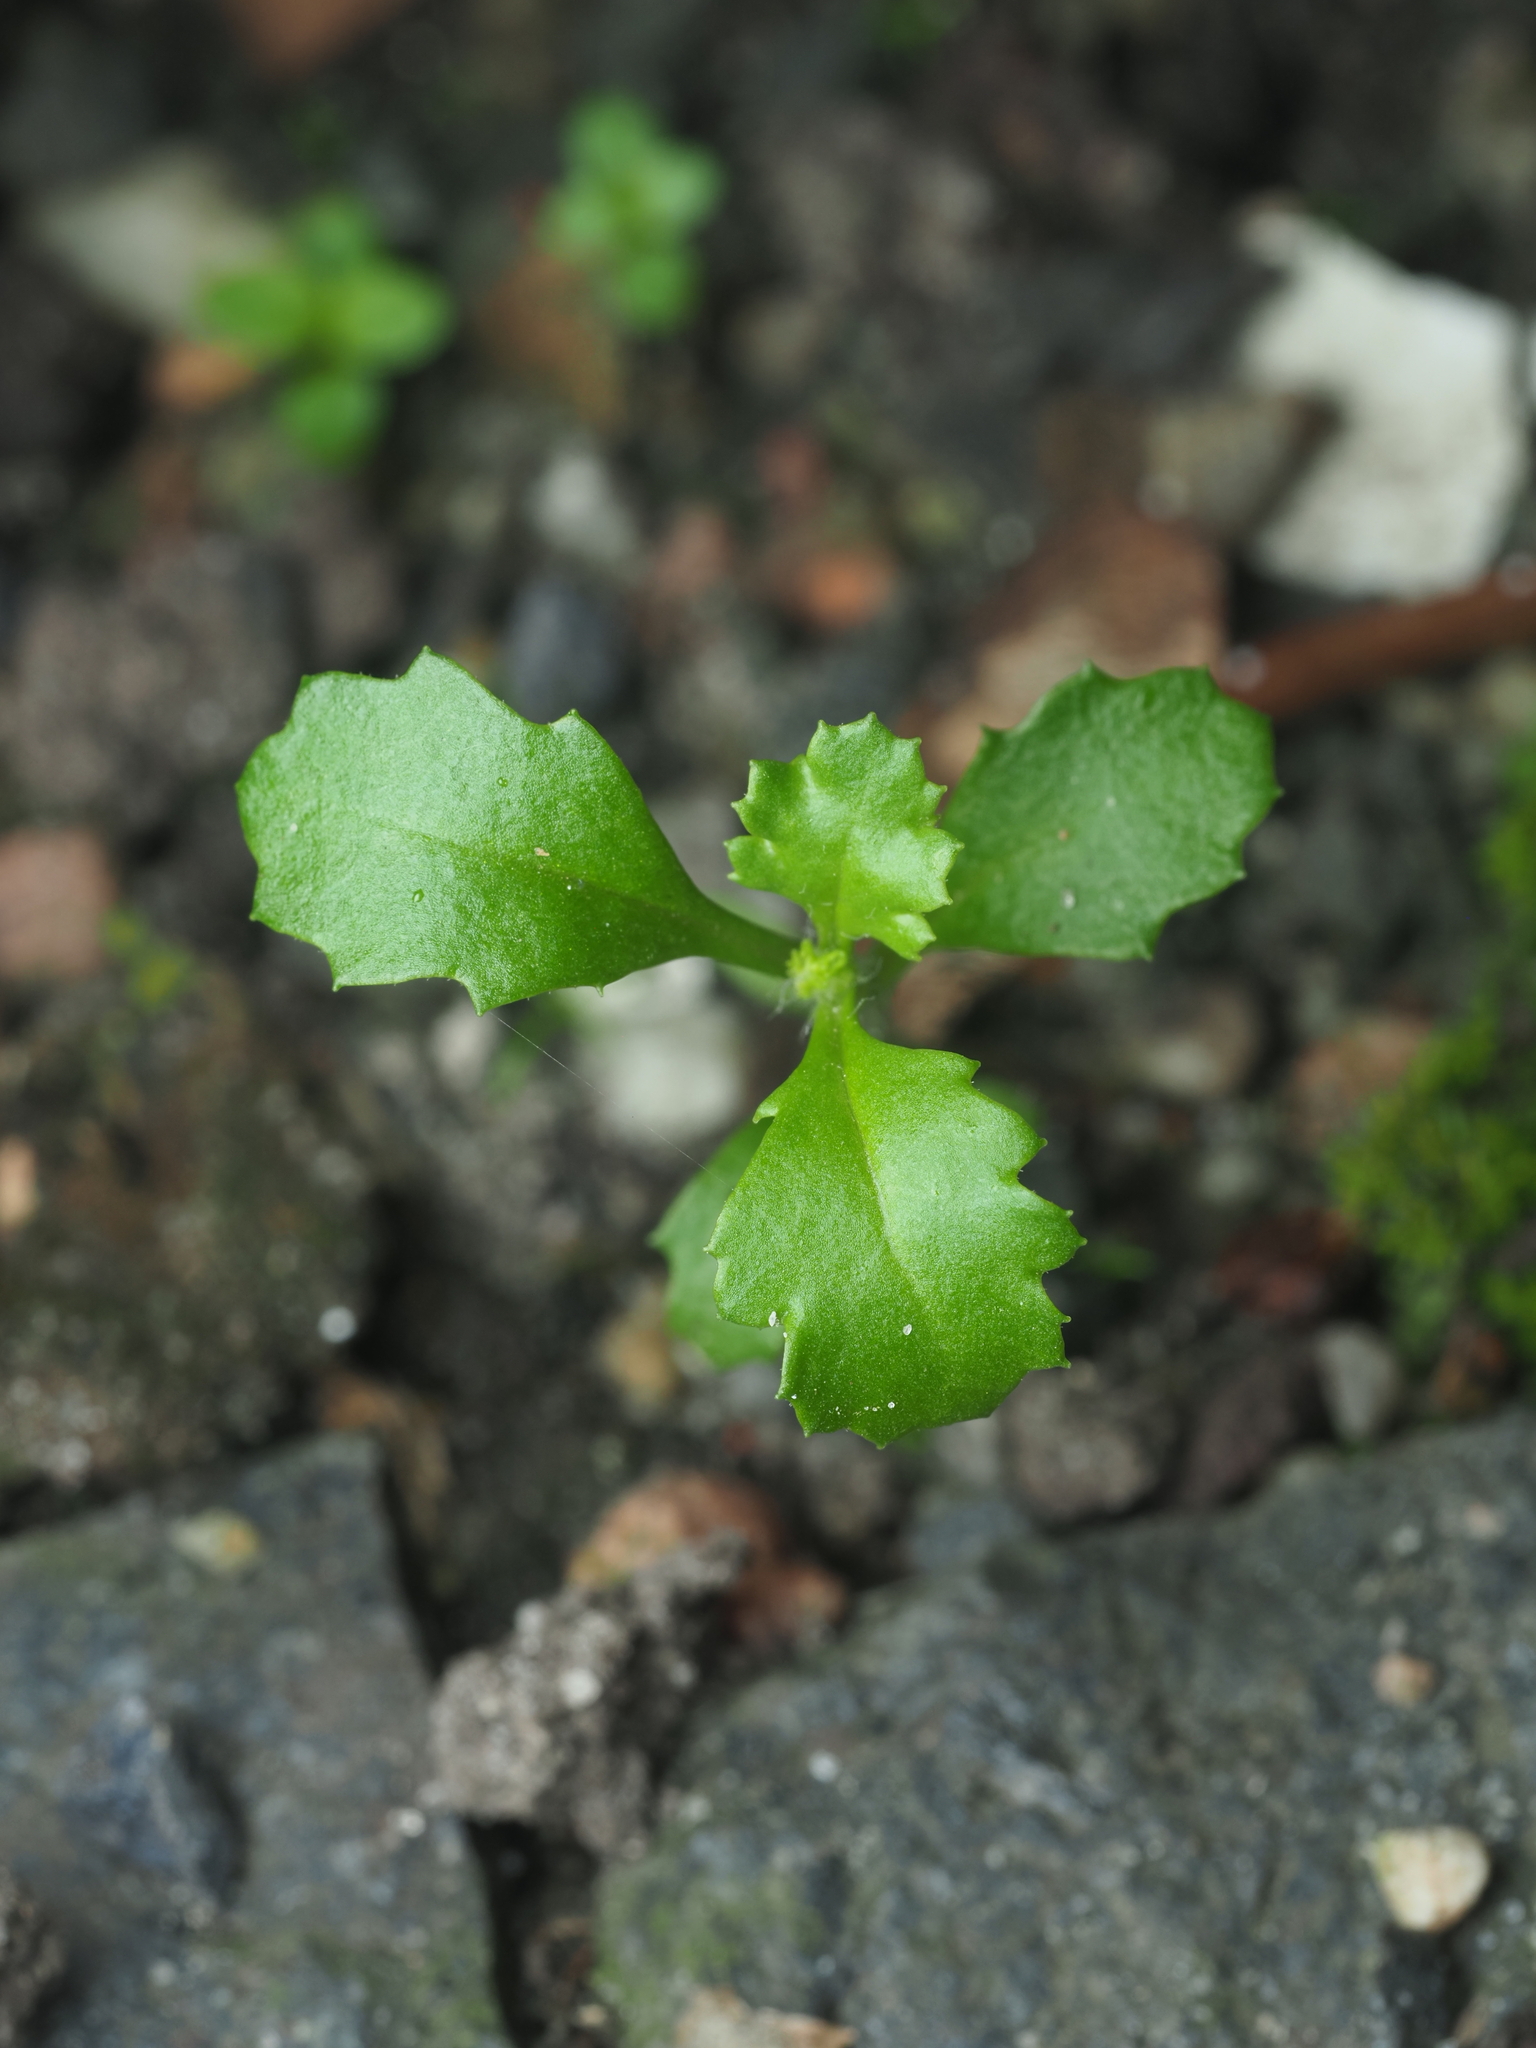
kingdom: Plantae
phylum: Tracheophyta
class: Magnoliopsida
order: Asterales
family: Asteraceae
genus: Senecio
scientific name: Senecio vulgaris
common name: Old-man-in-the-spring
